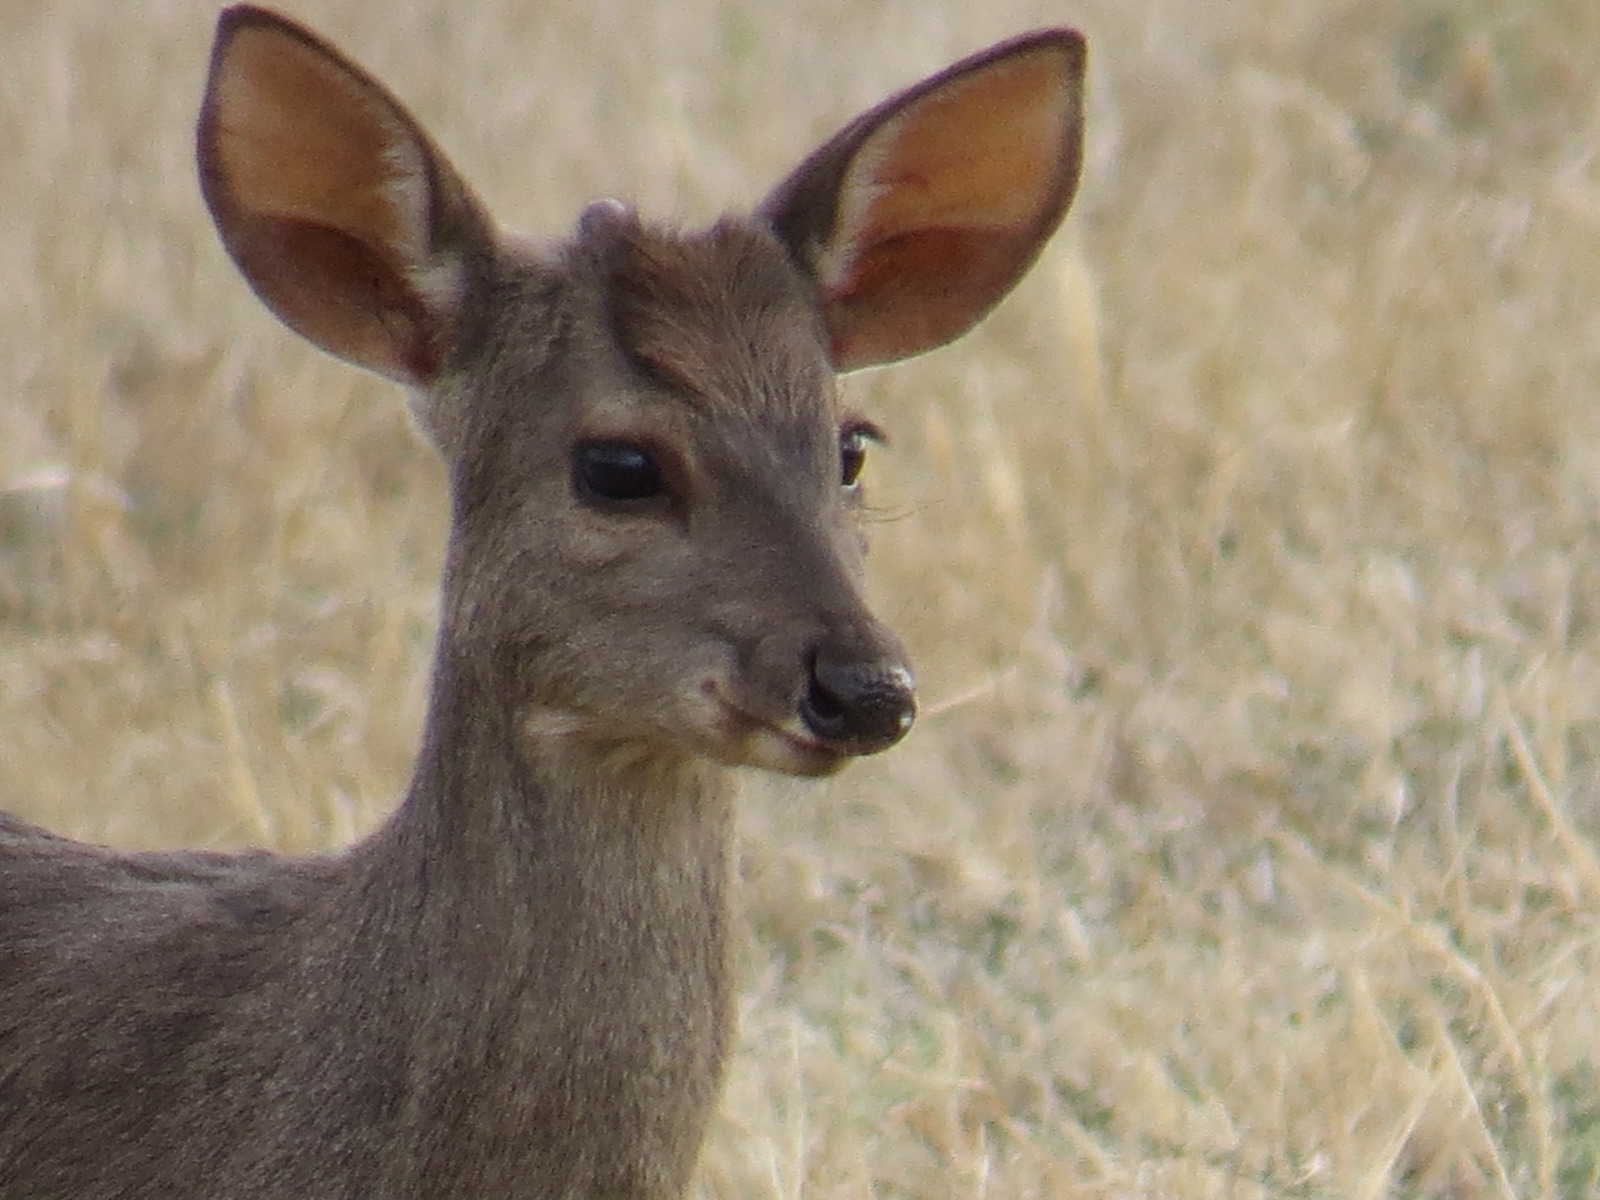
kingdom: Animalia
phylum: Chordata
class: Mammalia
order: Artiodactyla
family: Cervidae
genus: Mazama
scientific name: Mazama gouazoubira
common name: Gray brocket
